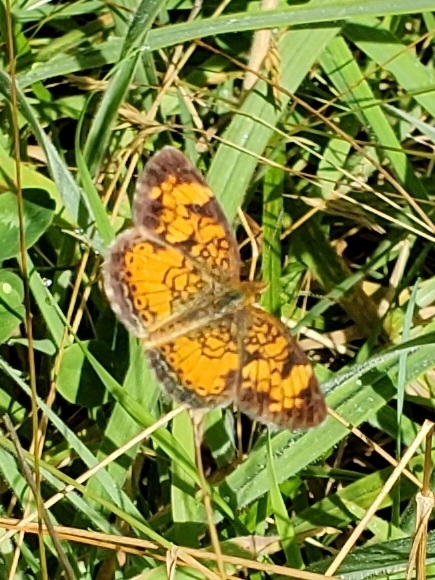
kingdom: Animalia
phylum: Arthropoda
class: Insecta
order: Lepidoptera
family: Nymphalidae
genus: Phyciodes
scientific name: Phyciodes tharos
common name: Pearl crescent
